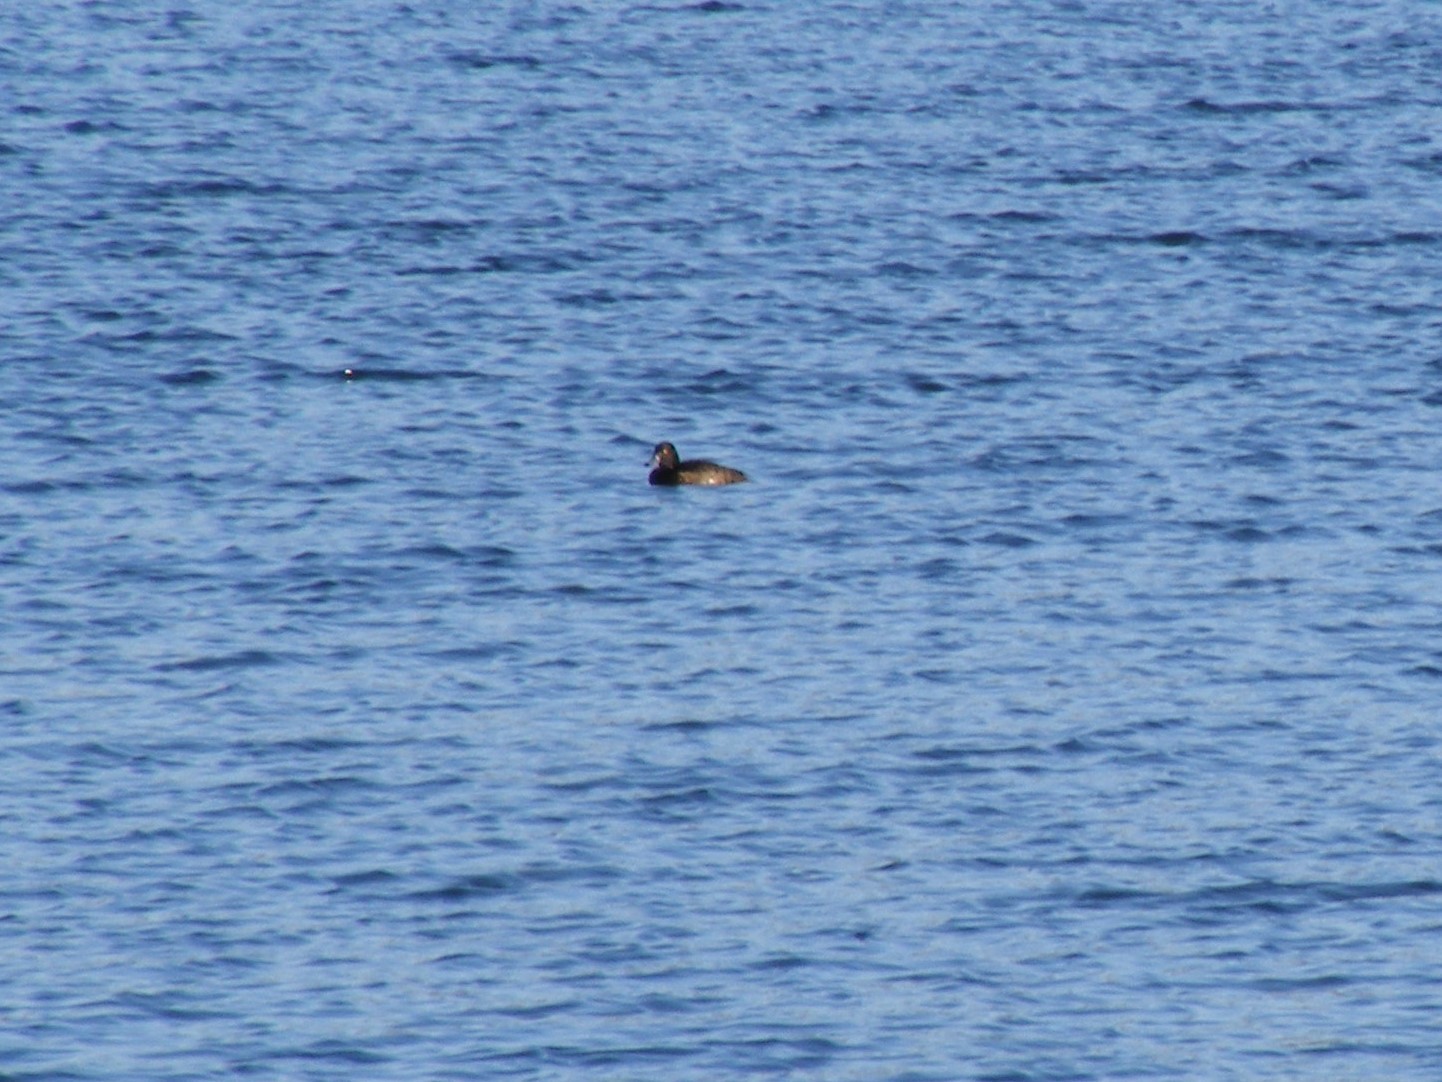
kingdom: Animalia
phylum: Chordata
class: Aves
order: Anseriformes
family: Anatidae
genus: Aythya
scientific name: Aythya fuligula
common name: Tufted duck
